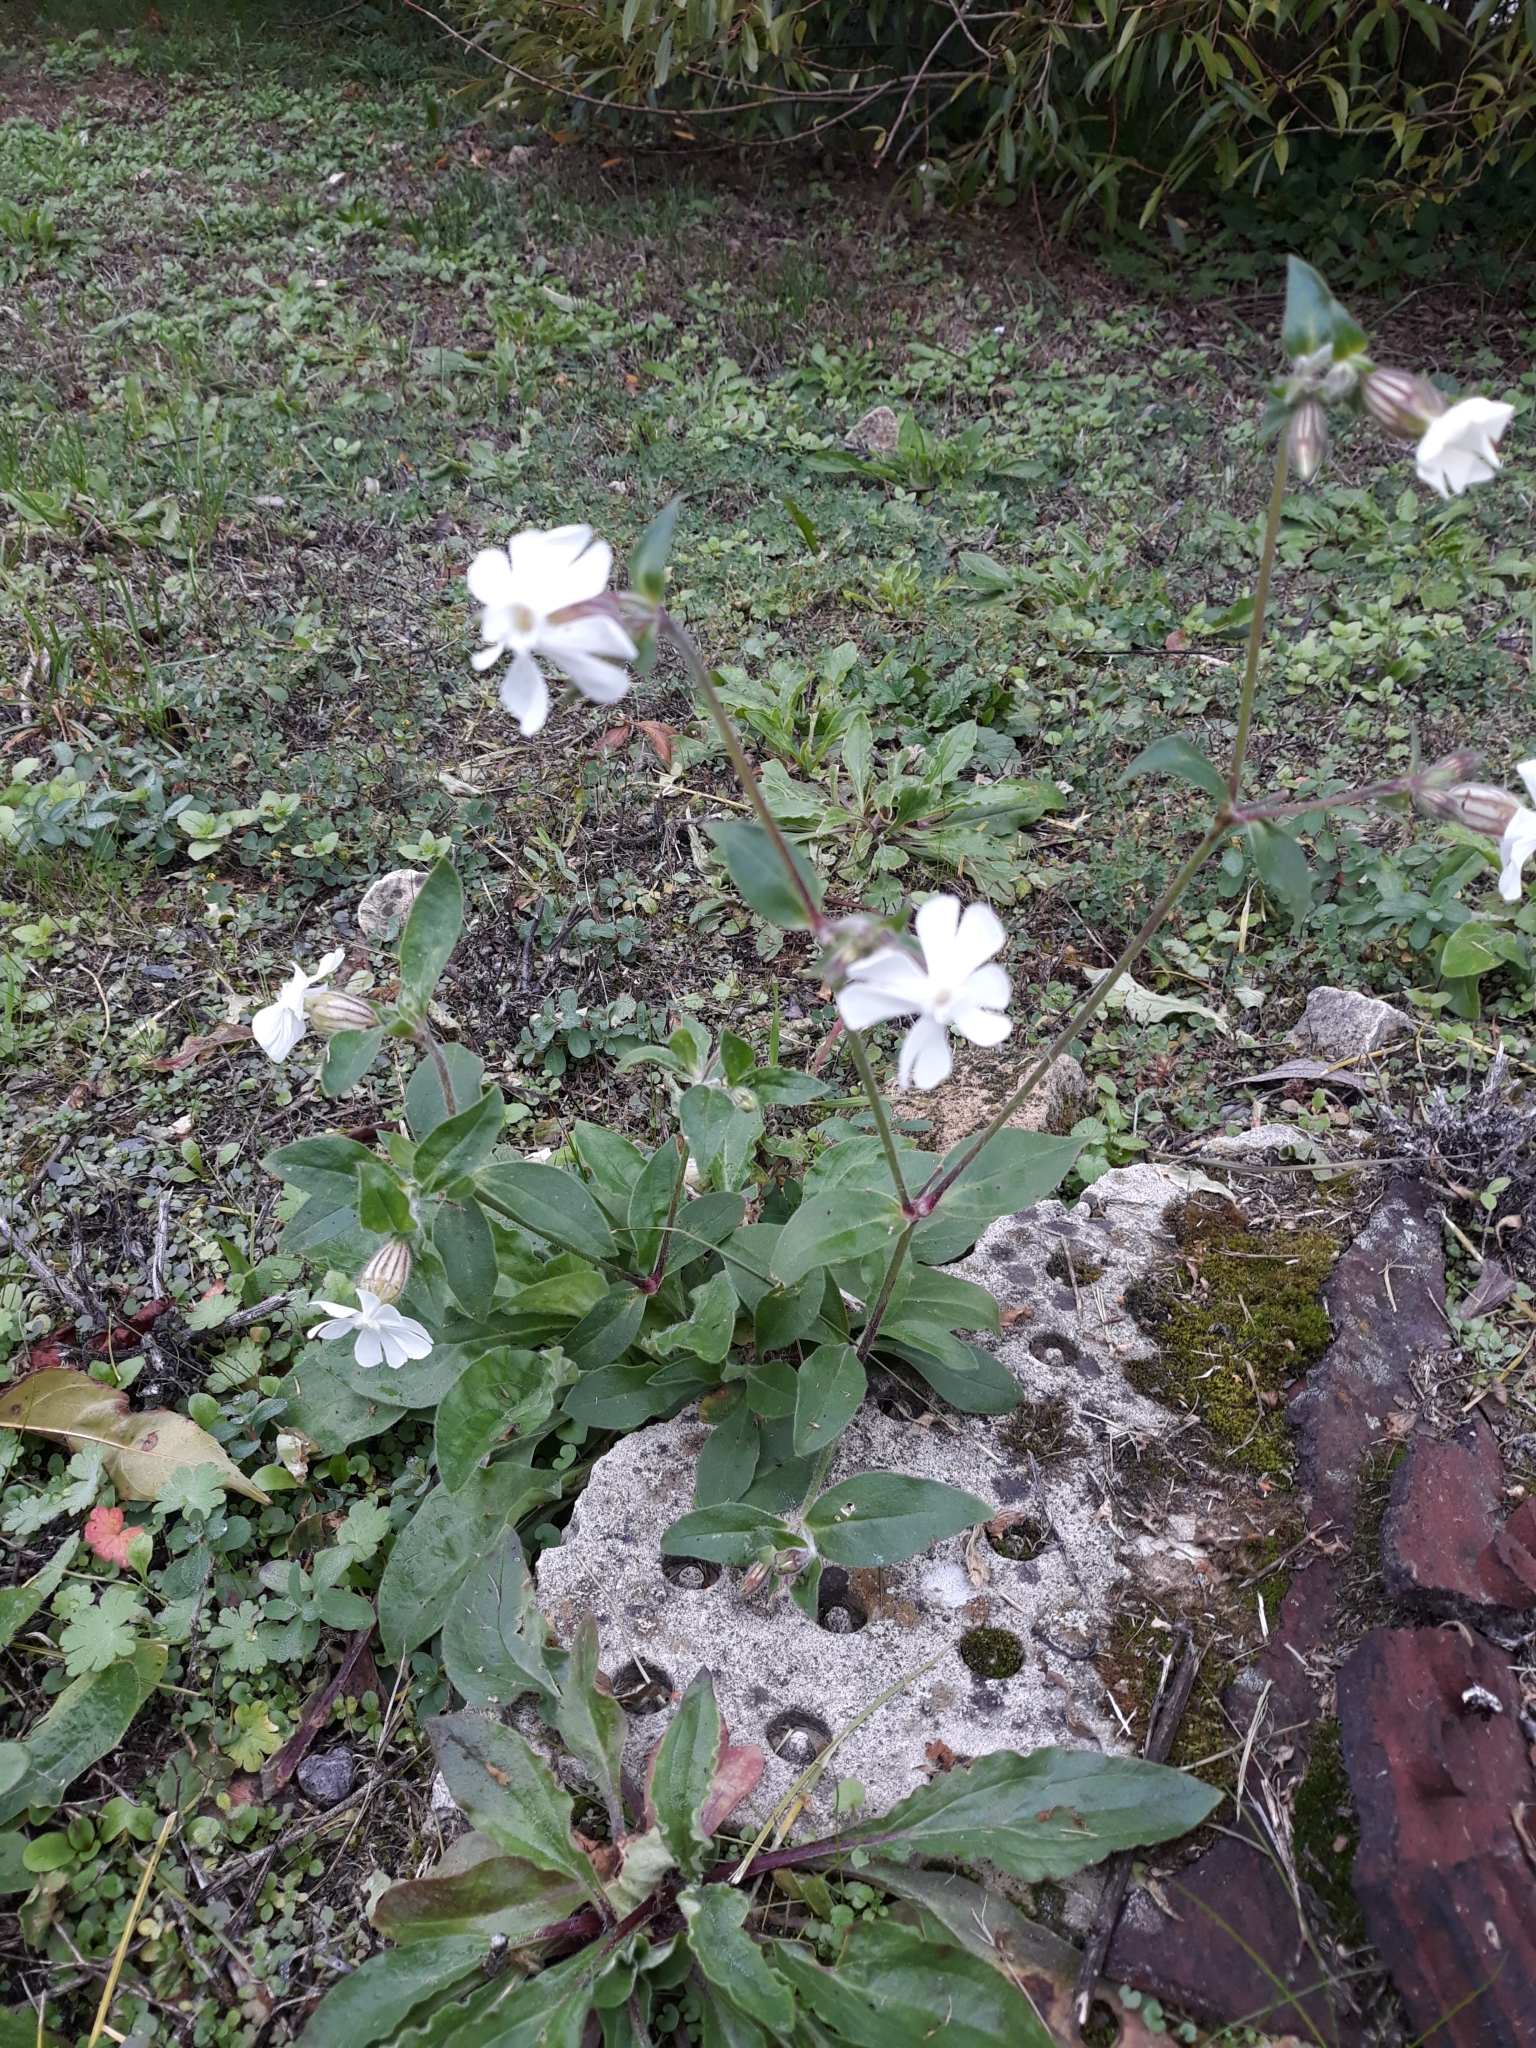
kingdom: Plantae
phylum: Tracheophyta
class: Magnoliopsida
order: Caryophyllales
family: Caryophyllaceae
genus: Silene
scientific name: Silene latifolia
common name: White campion
